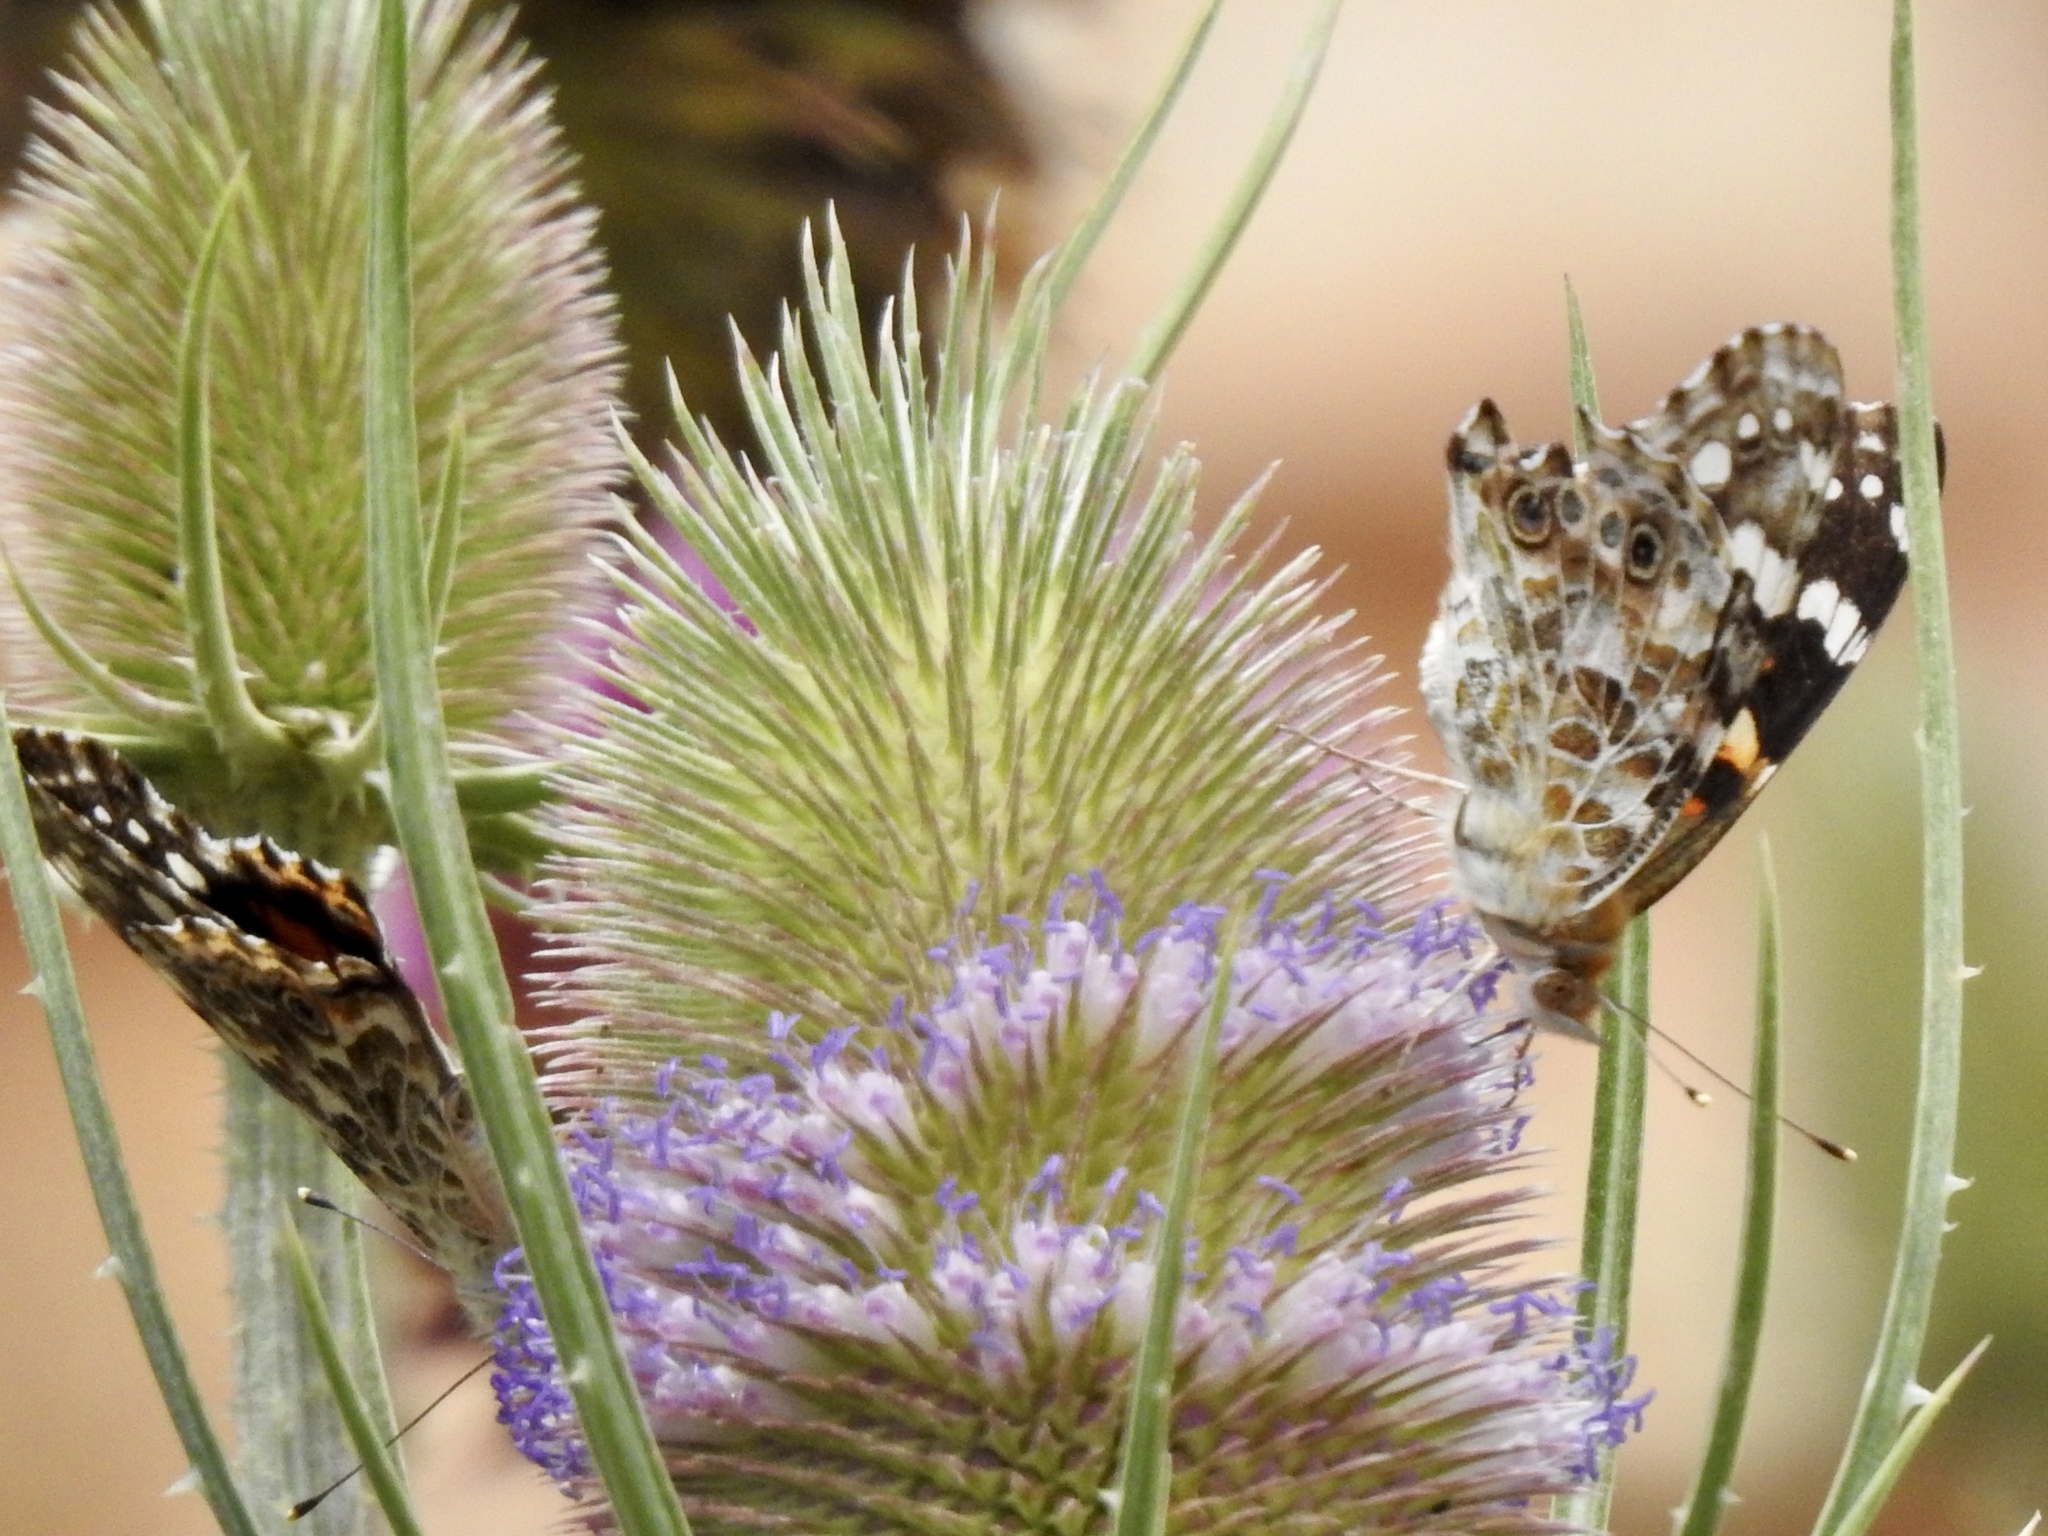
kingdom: Animalia
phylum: Arthropoda
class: Insecta
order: Lepidoptera
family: Nymphalidae
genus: Vanessa
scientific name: Vanessa cardui
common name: Painted lady
